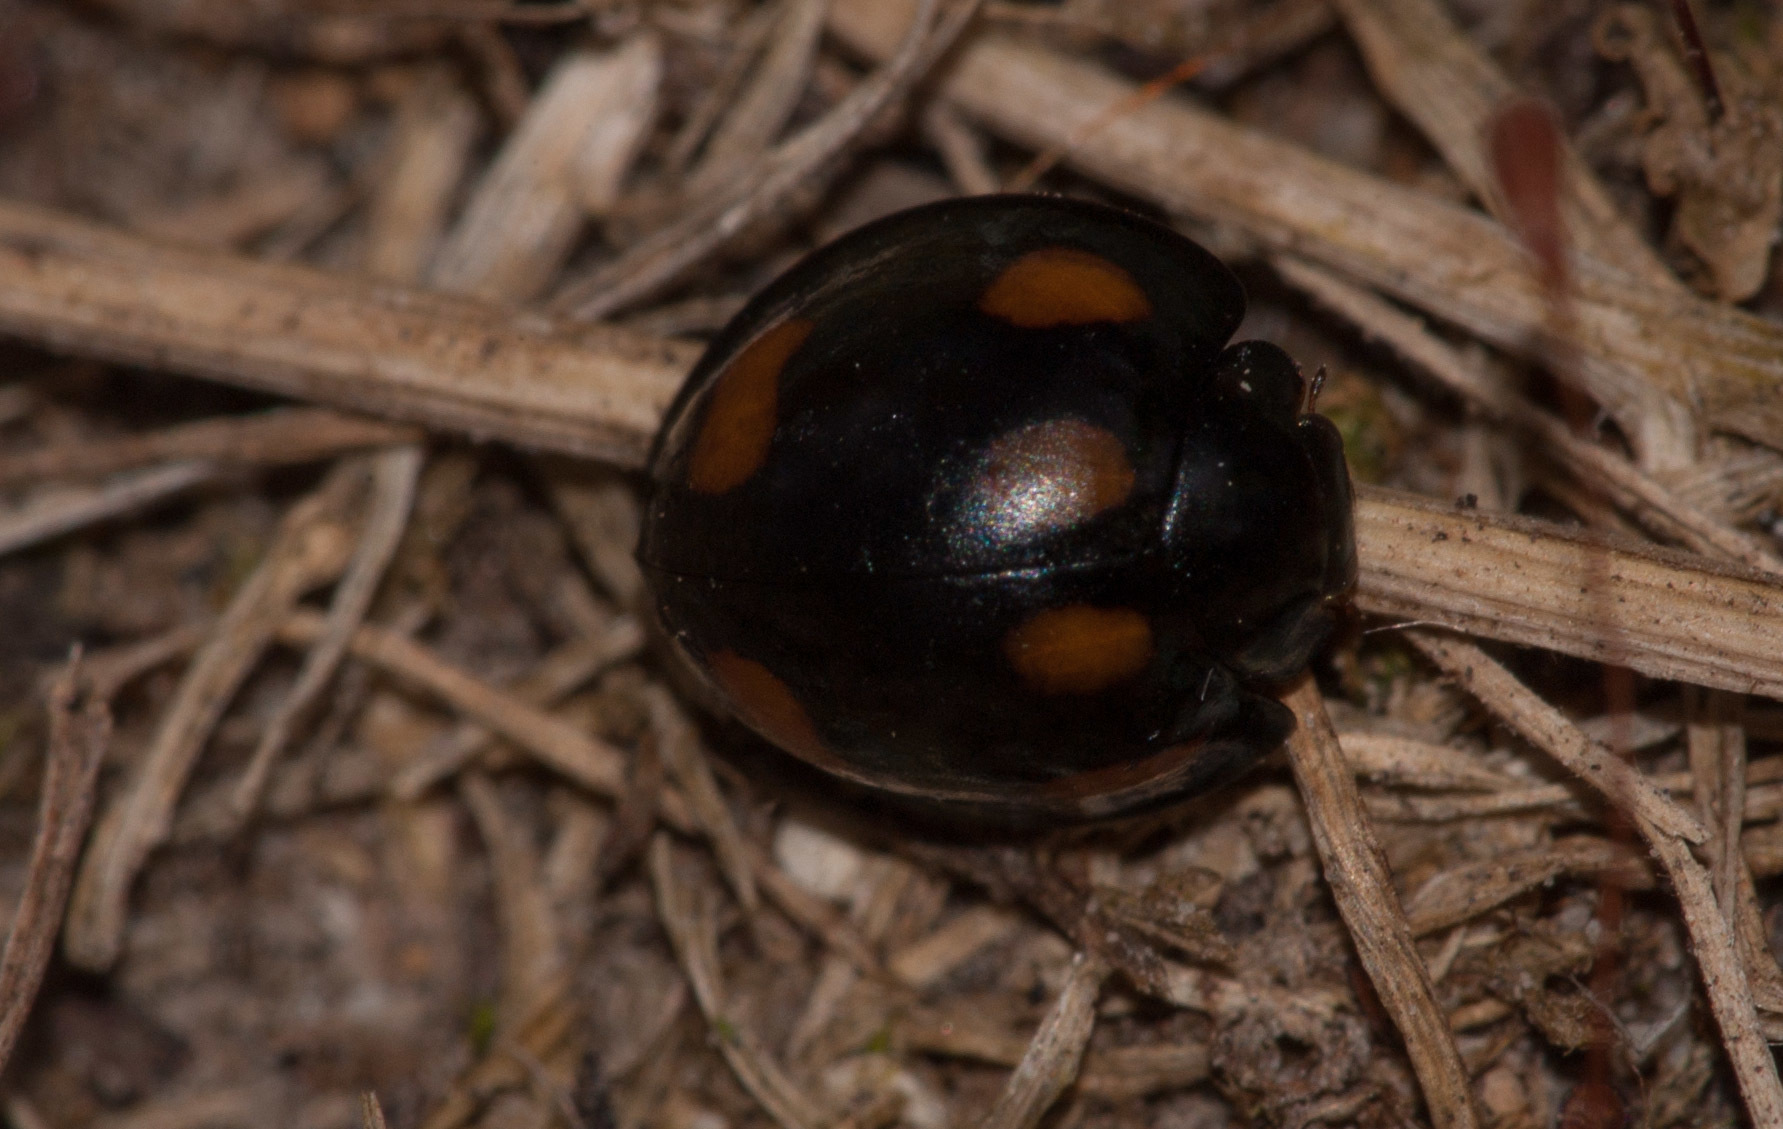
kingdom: Animalia
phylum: Arthropoda
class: Insecta
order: Coleoptera
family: Coccinellidae
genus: Orcus
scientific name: Orcus australasiae
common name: Lady beetle
